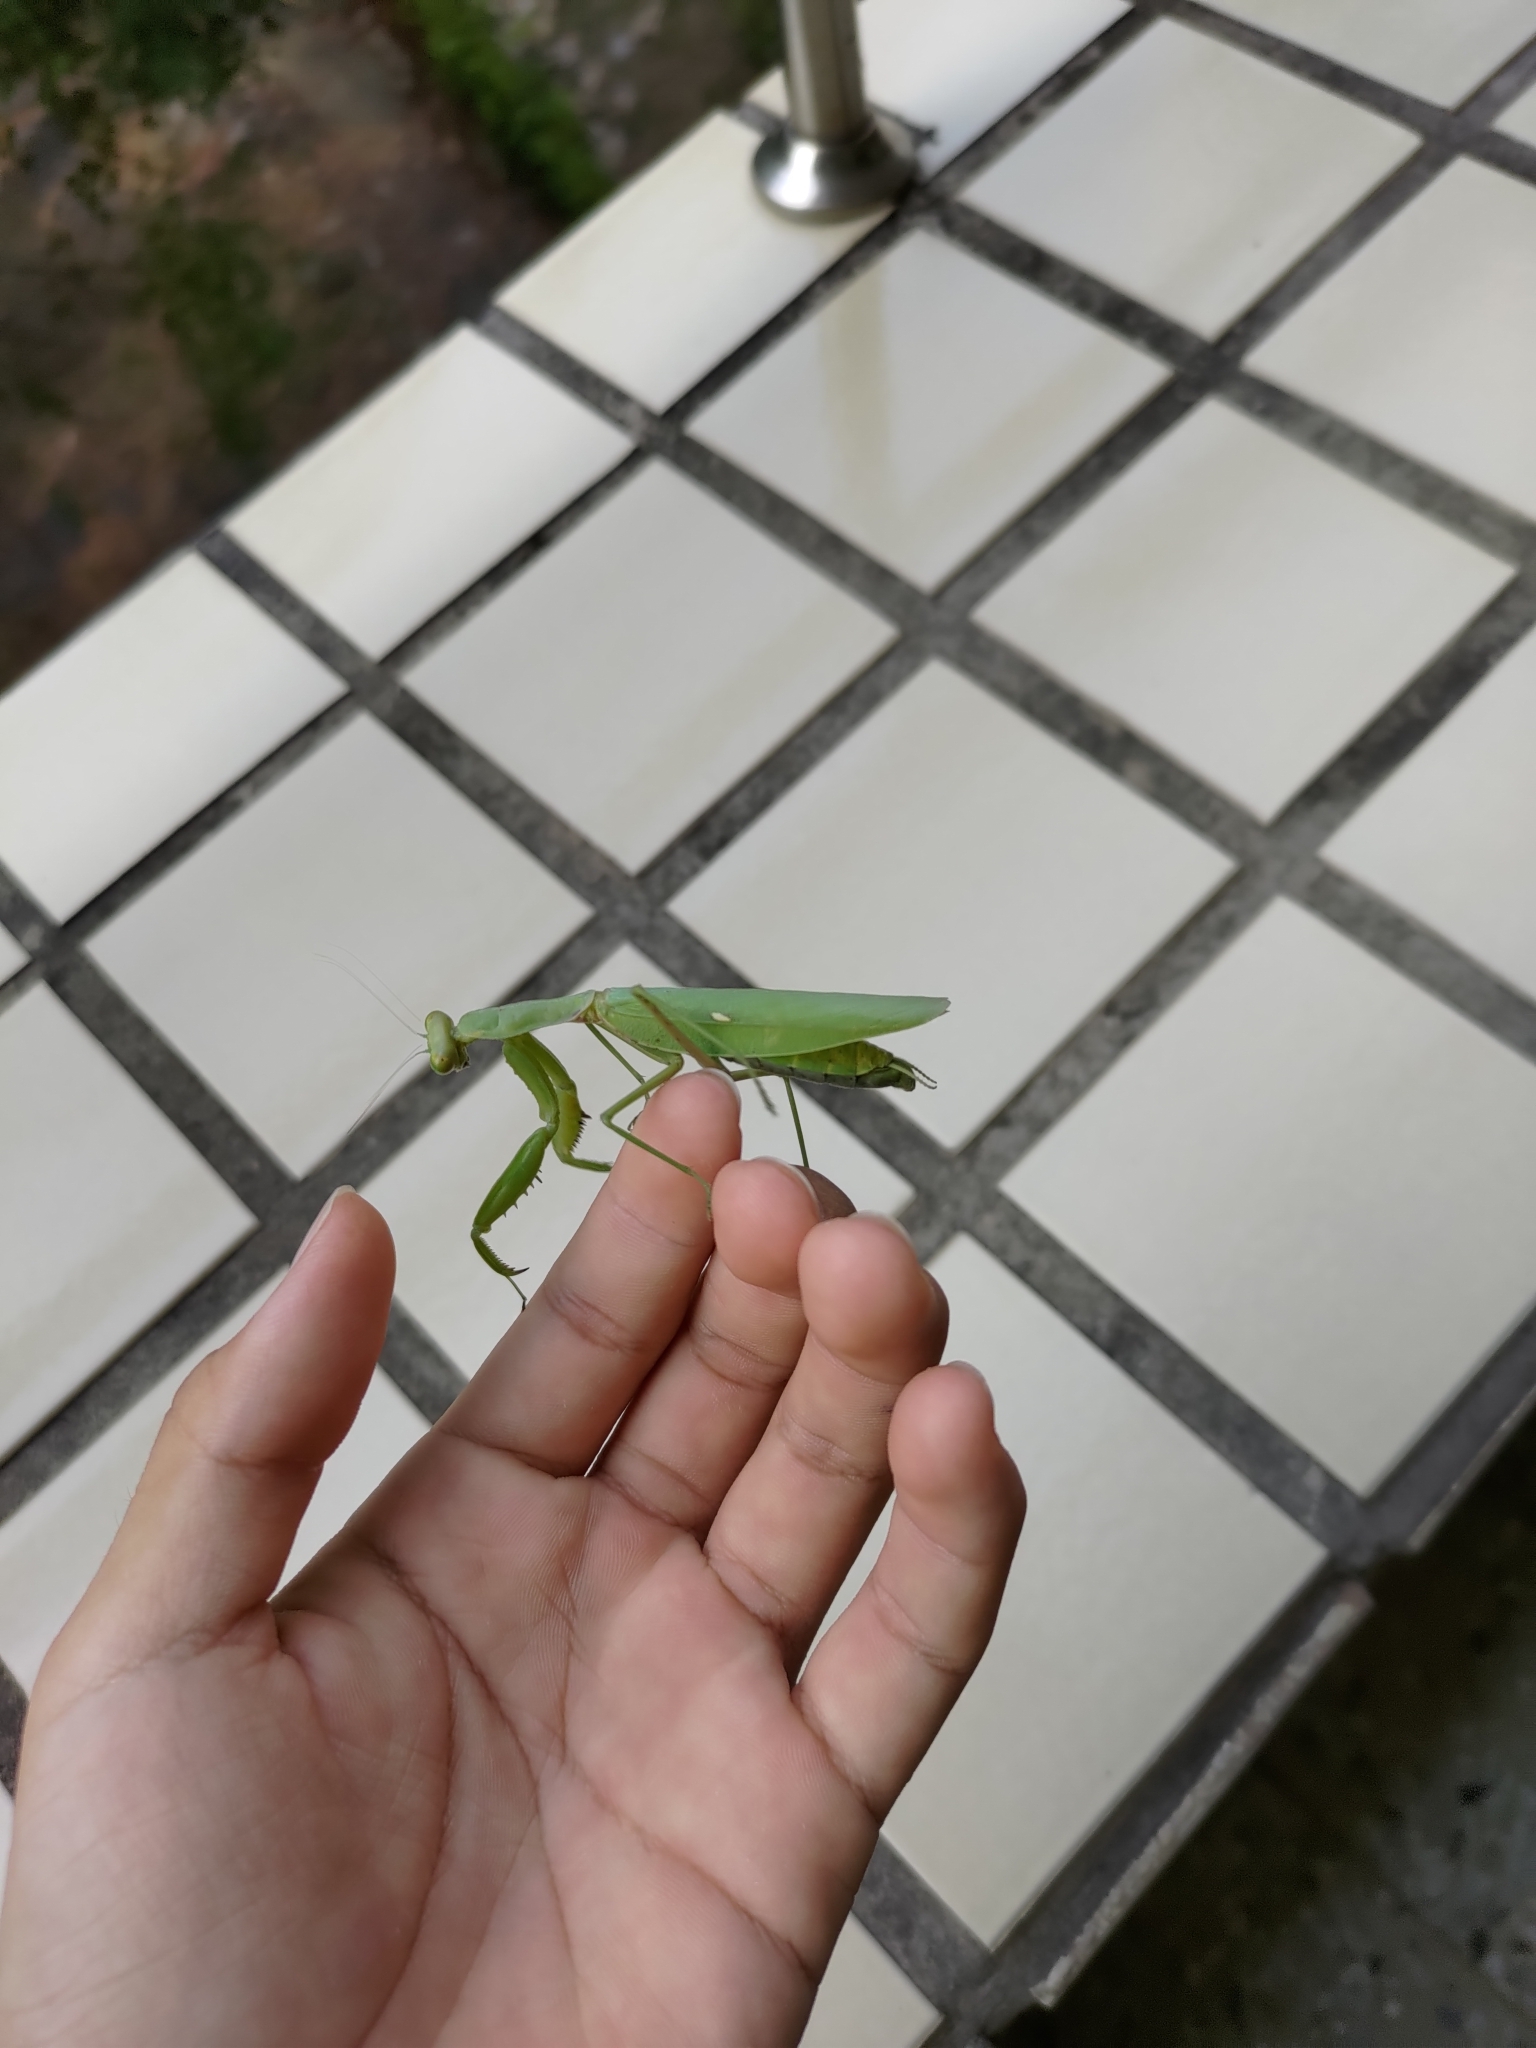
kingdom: Animalia
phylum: Arthropoda
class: Insecta
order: Mantodea
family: Mantidae
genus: Hierodula
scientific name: Hierodula patellifera
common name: Asian mantis
